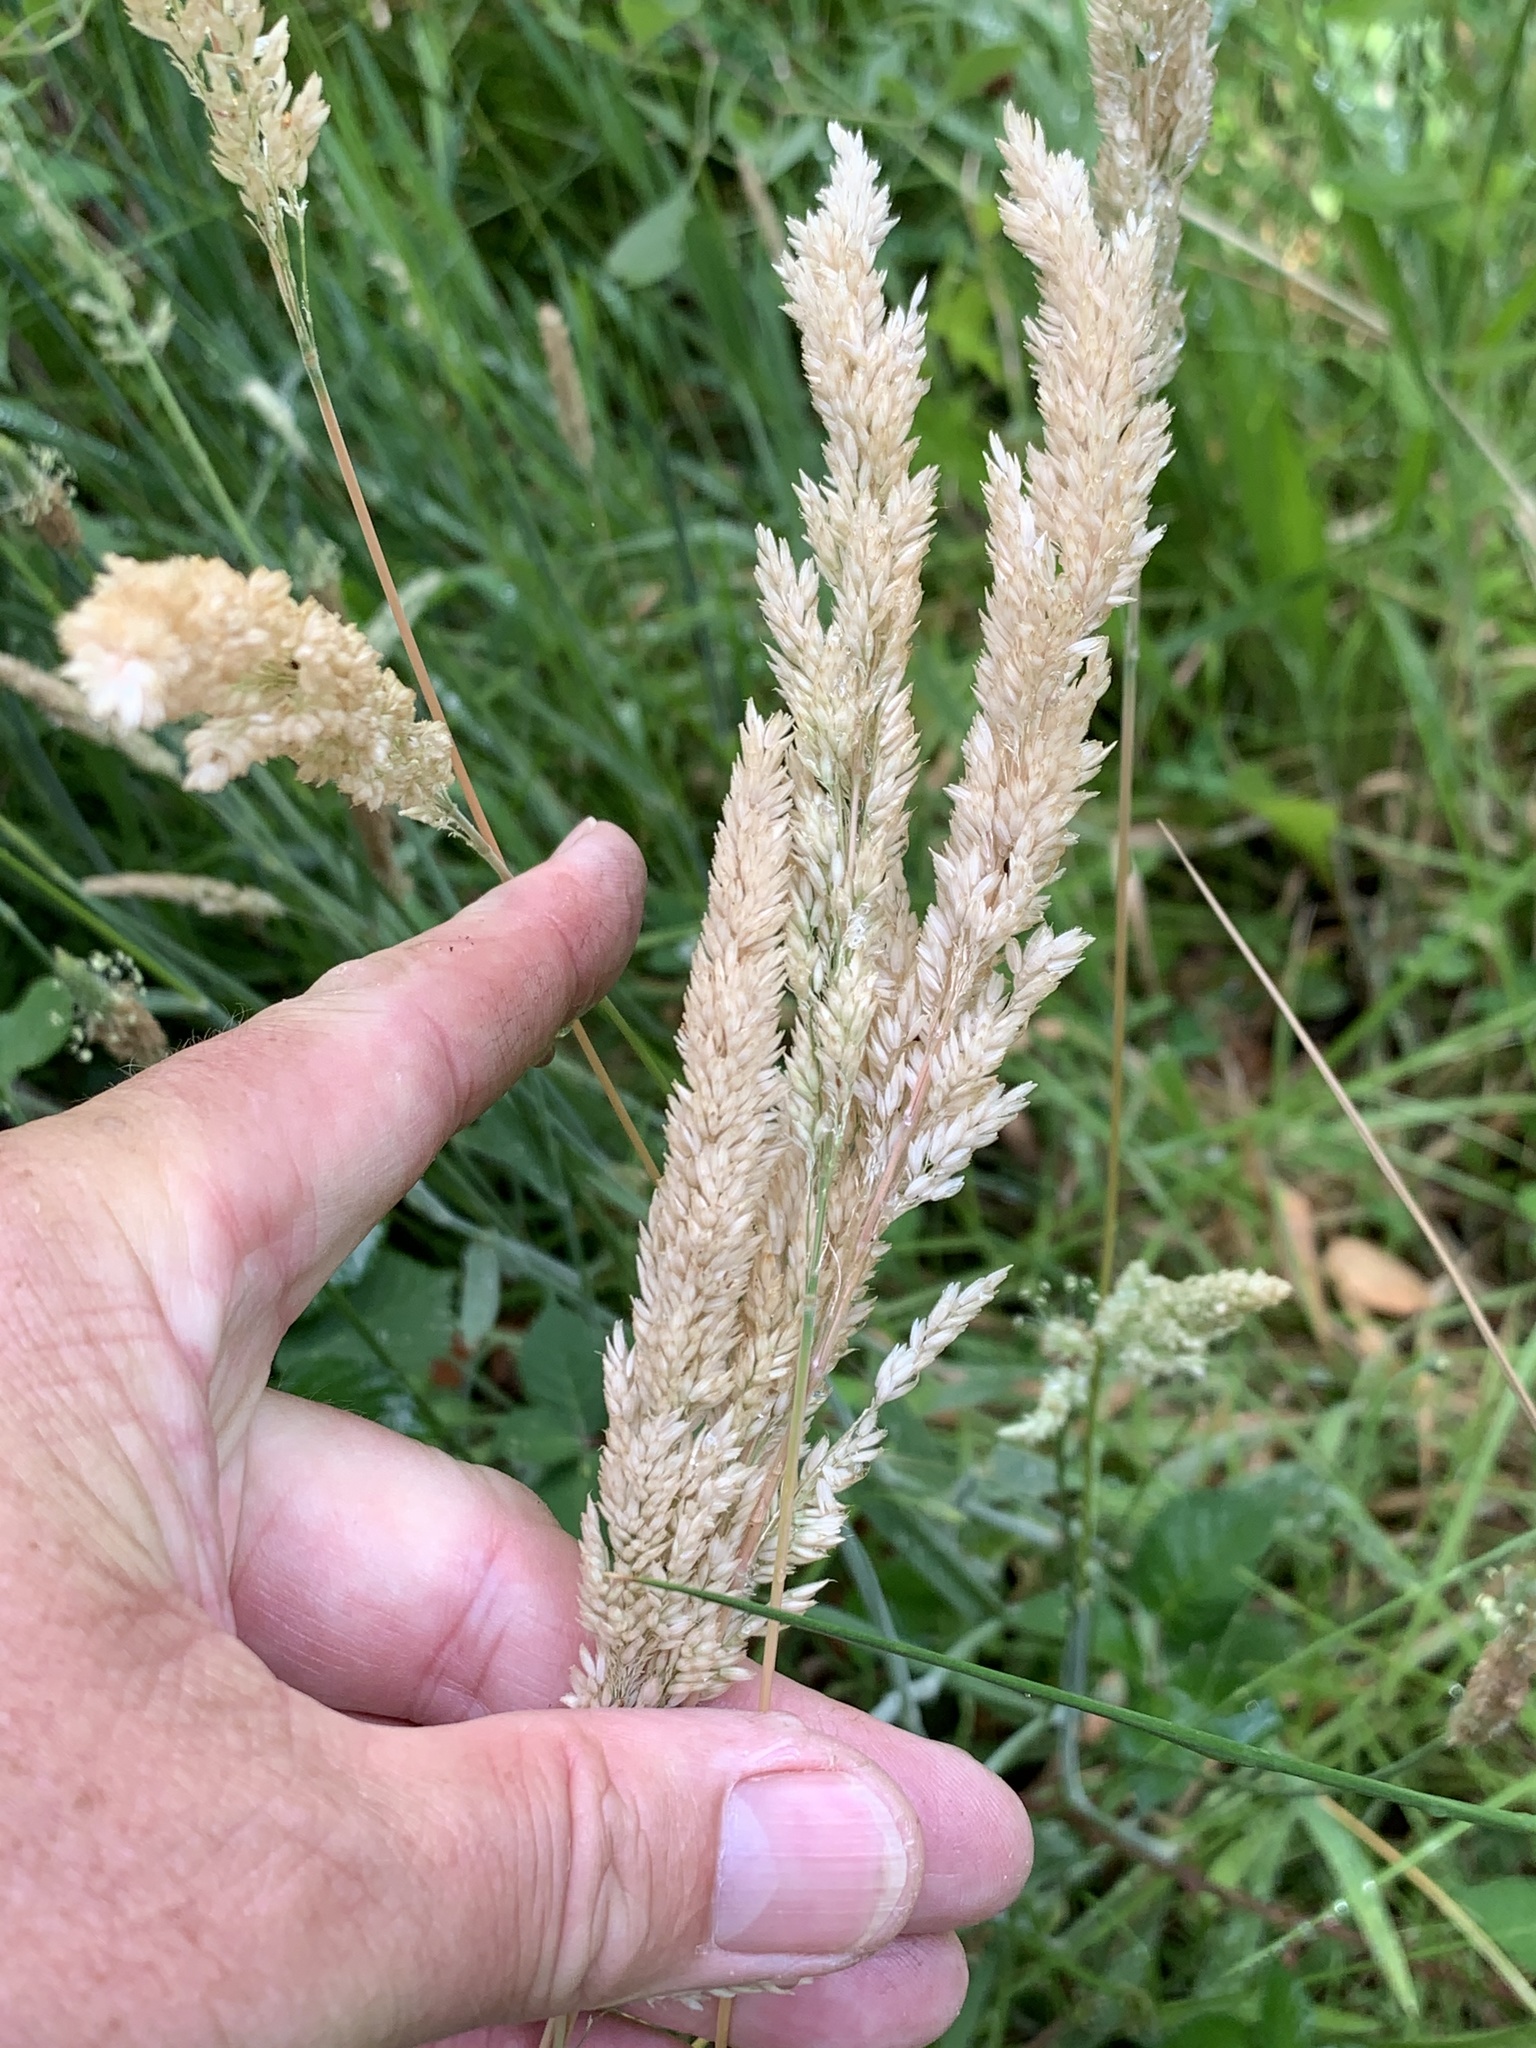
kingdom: Plantae
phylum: Tracheophyta
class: Liliopsida
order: Poales
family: Poaceae
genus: Holcus
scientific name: Holcus lanatus
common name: Yorkshire-fog
